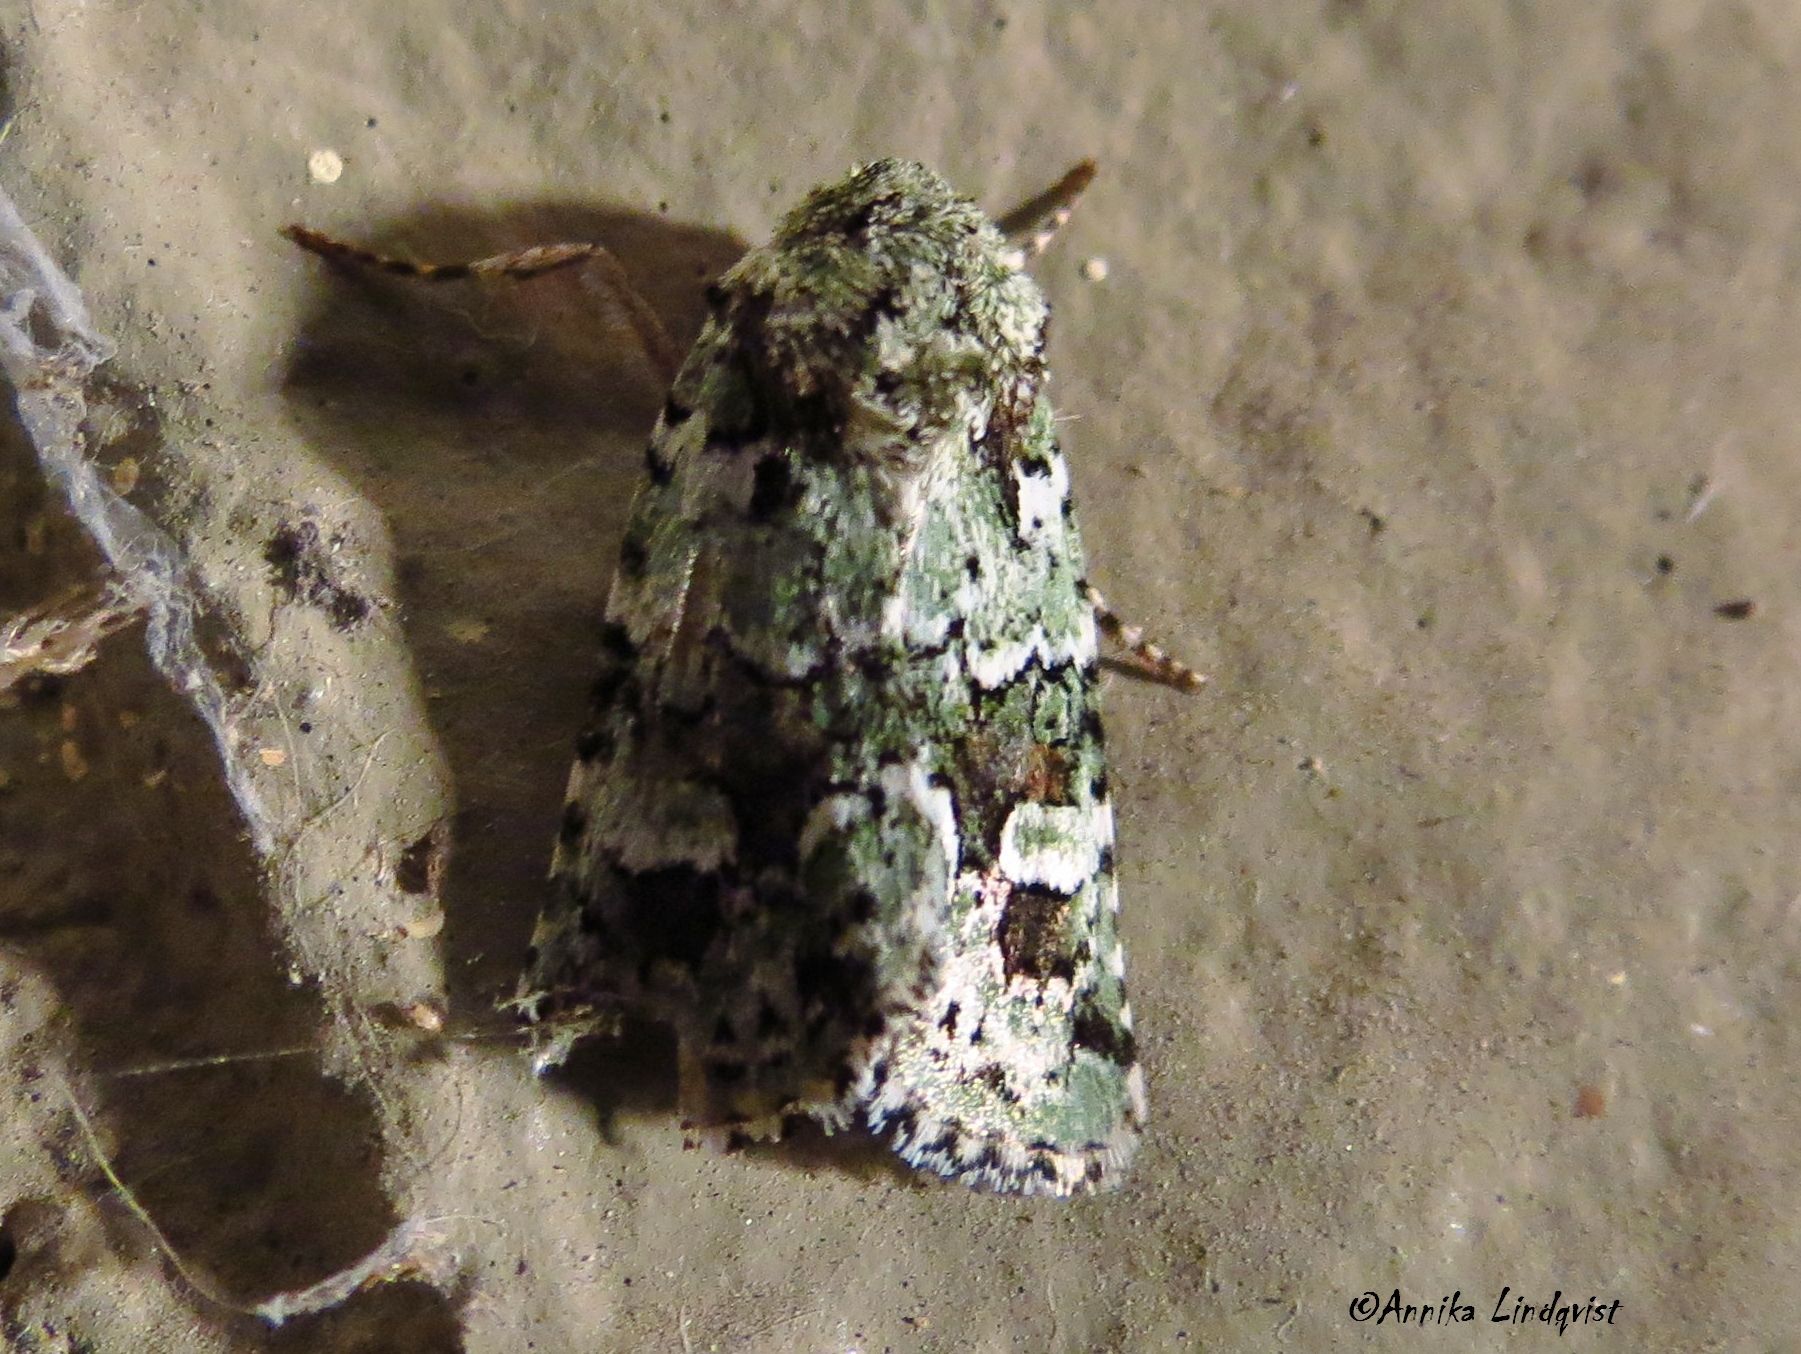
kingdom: Animalia
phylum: Arthropoda
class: Insecta
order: Lepidoptera
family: Noctuidae
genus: Lacinipolia
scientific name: Lacinipolia laudabilis
